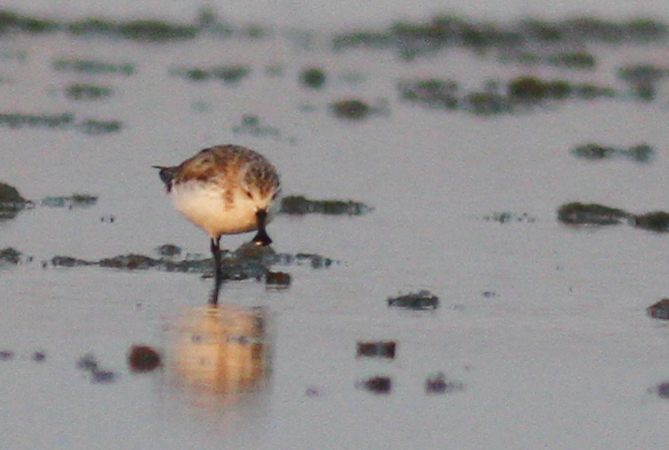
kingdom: Animalia
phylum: Chordata
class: Aves
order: Charadriiformes
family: Scolopacidae
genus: Calidris
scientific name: Calidris pygmaea
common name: Spoon-billed sandpiper
